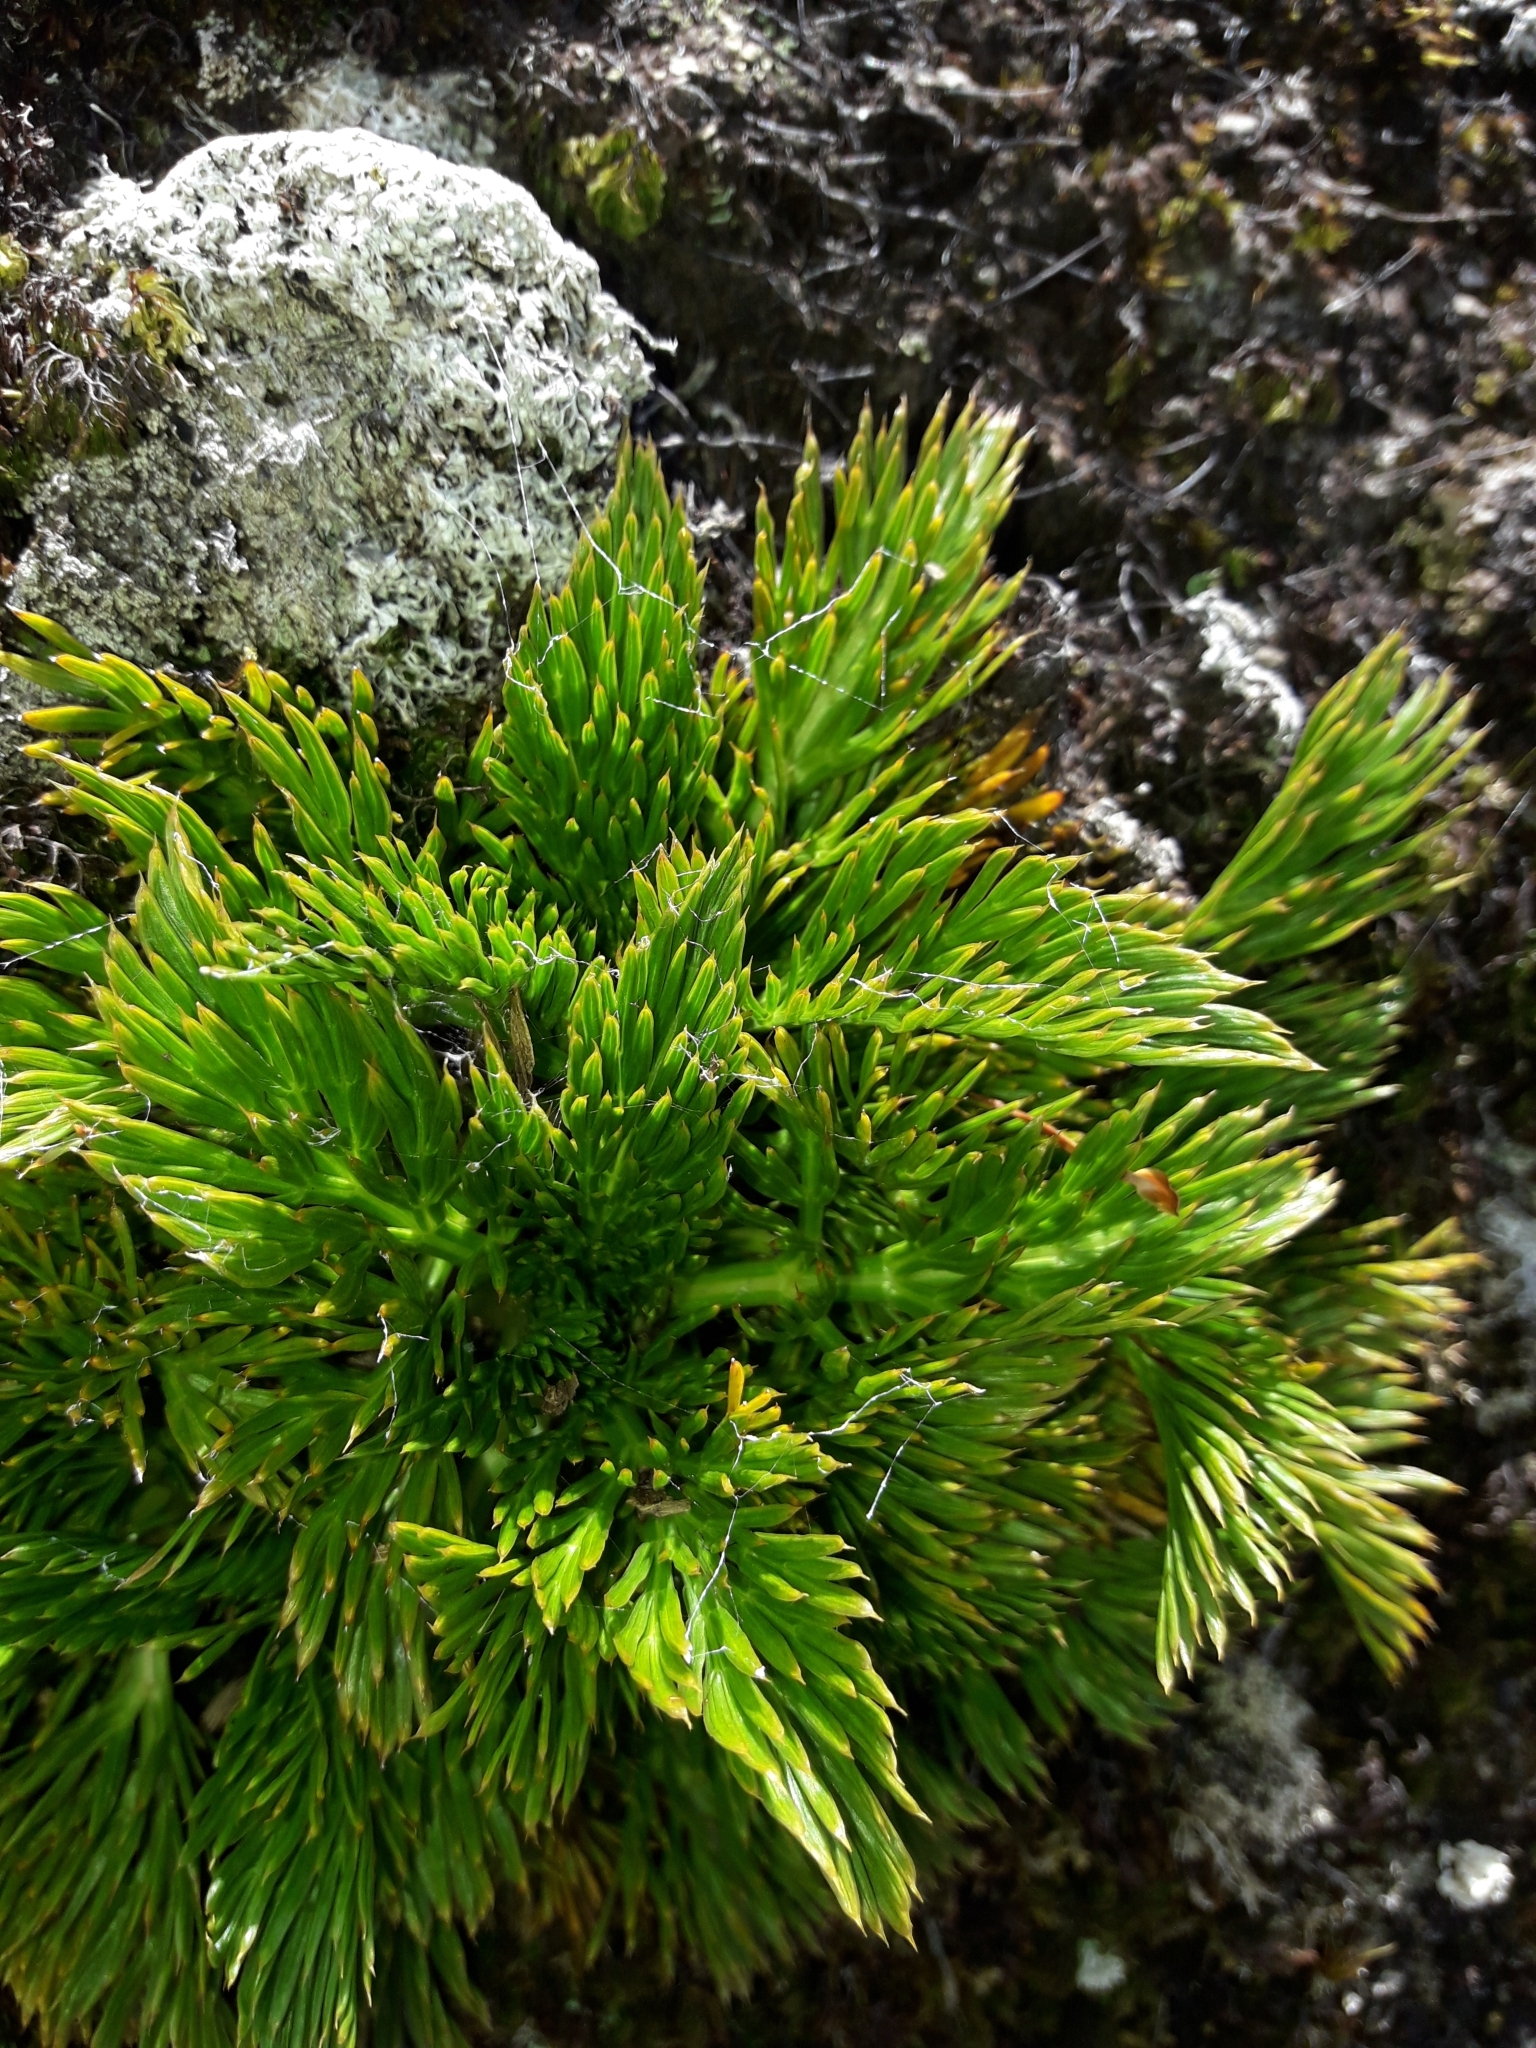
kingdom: Plantae
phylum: Tracheophyta
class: Magnoliopsida
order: Apiales
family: Apiaceae
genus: Aciphylla
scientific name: Aciphylla dissecta
